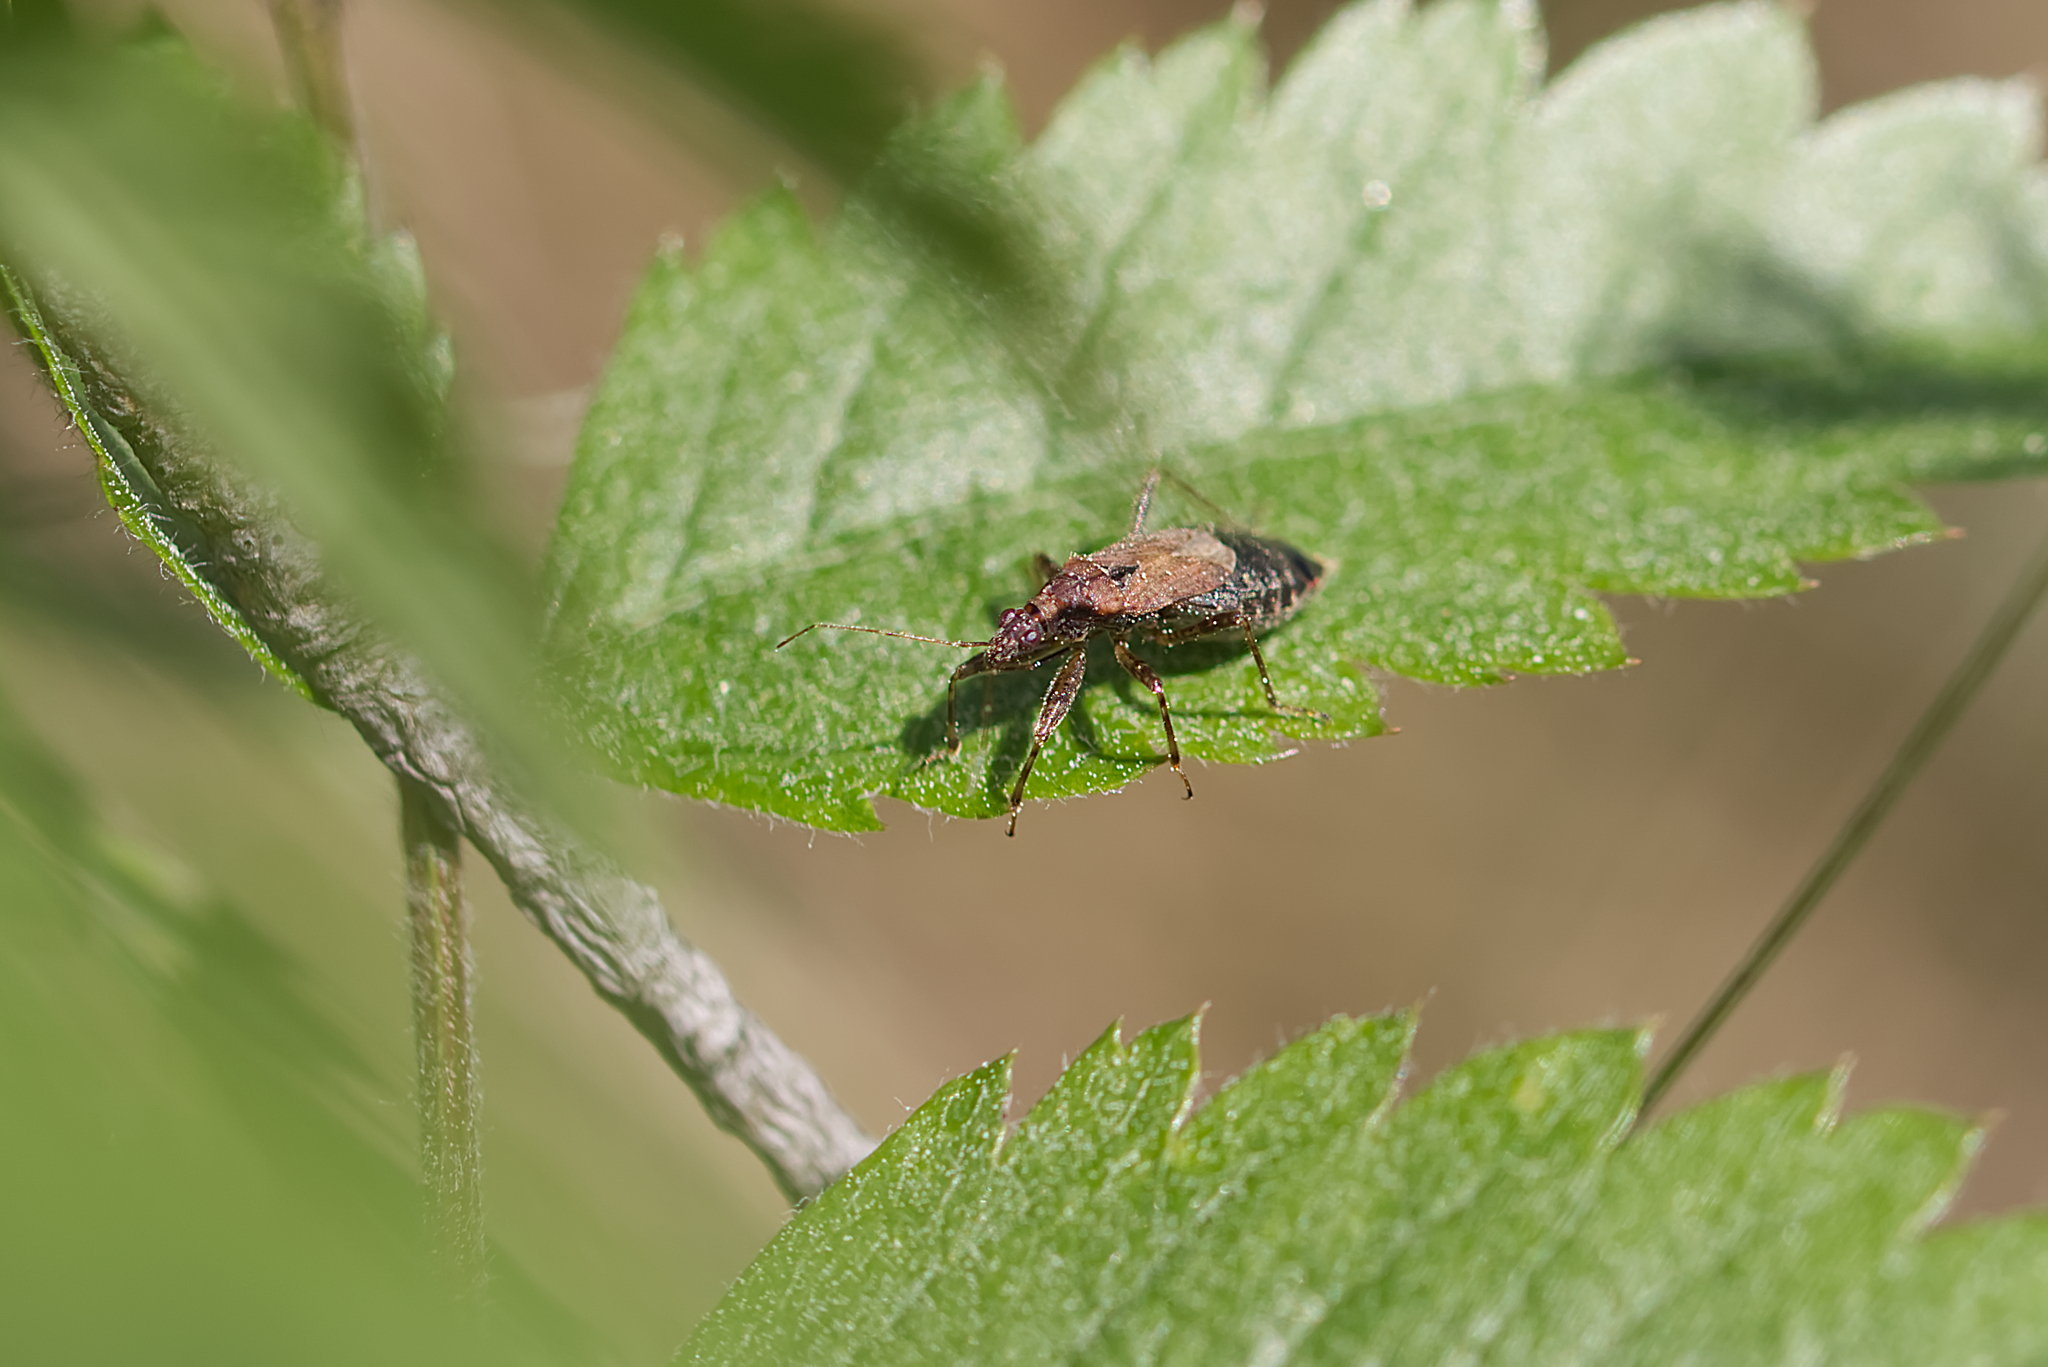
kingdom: Animalia
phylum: Arthropoda
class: Insecta
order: Hemiptera
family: Nabidae
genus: Himacerus
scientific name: Himacerus mirmicoides
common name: Ant damsel bug
